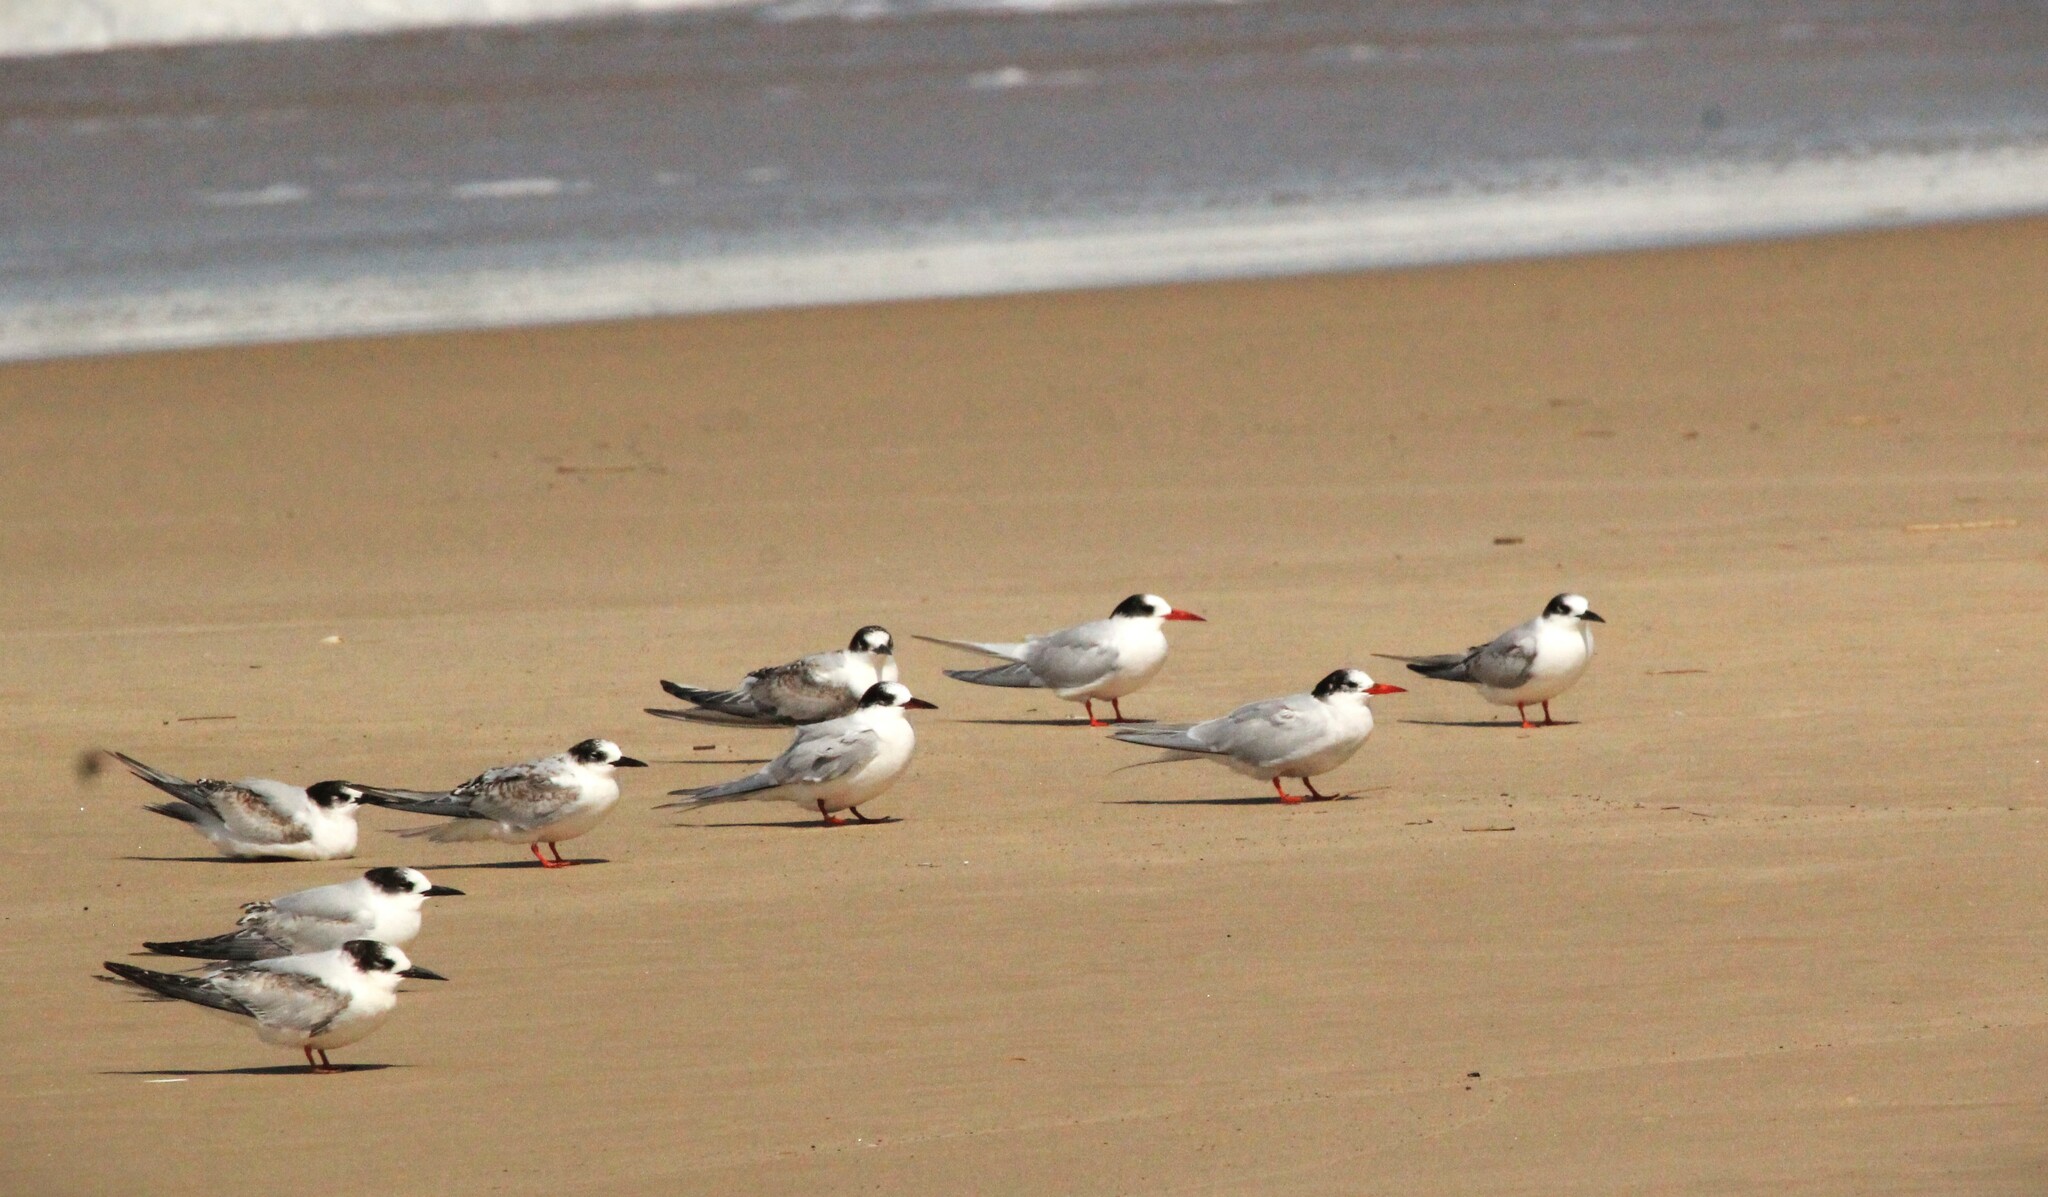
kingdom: Animalia
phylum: Chordata
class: Aves
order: Charadriiformes
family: Laridae
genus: Sterna
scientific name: Sterna hirundinacea
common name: South american tern
